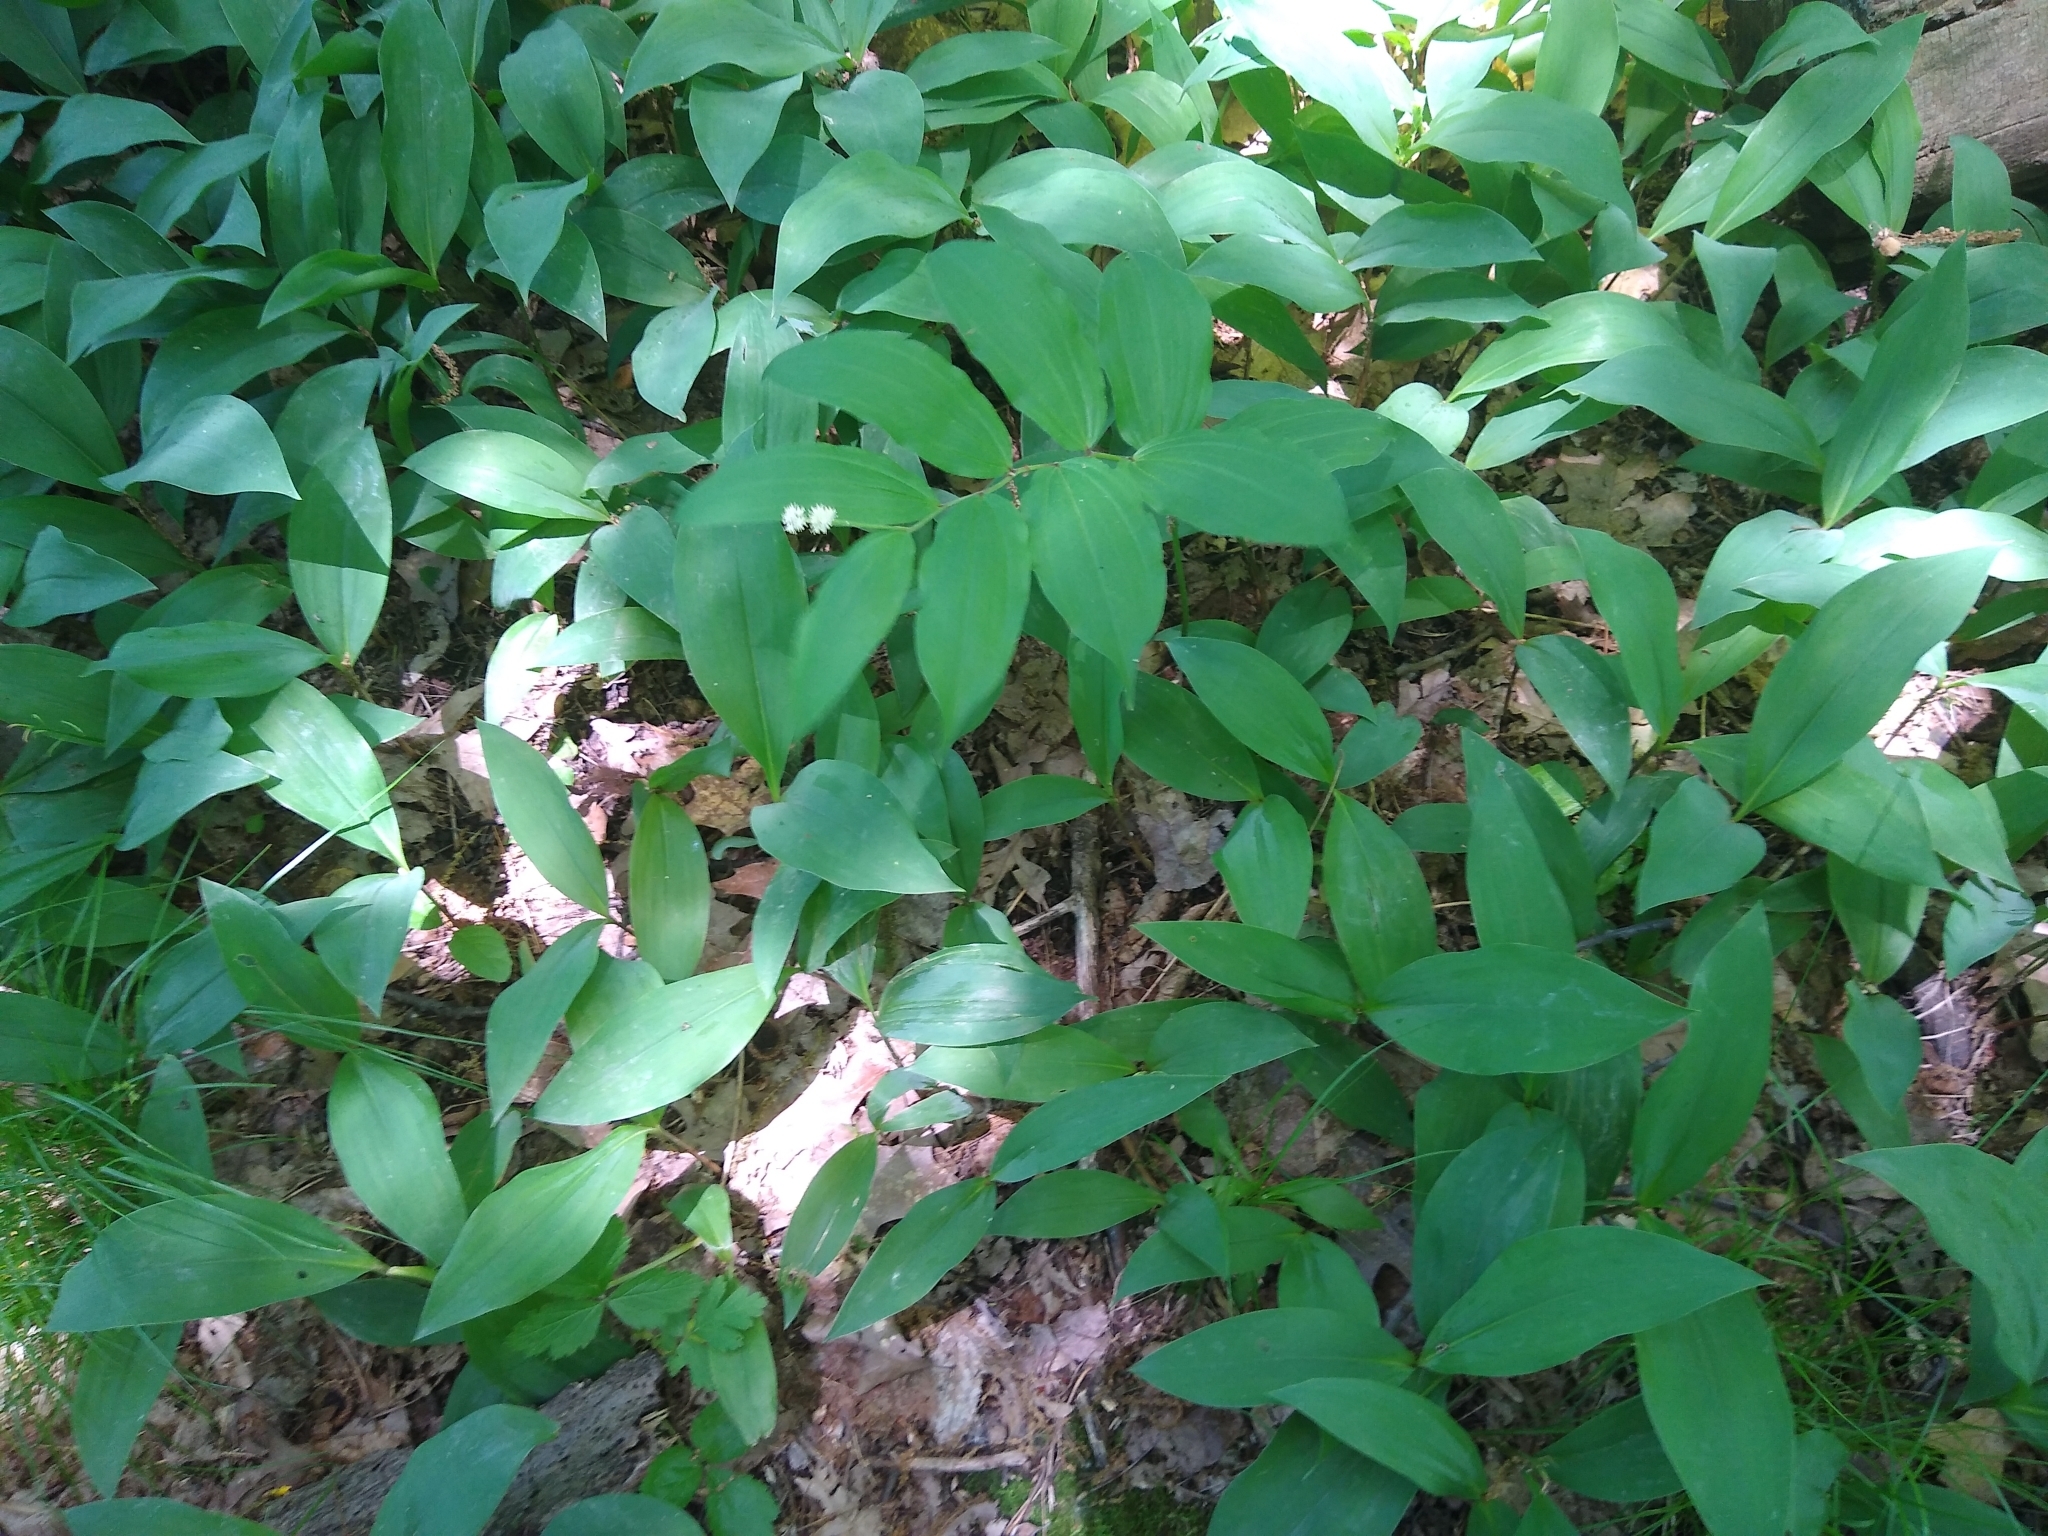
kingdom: Plantae
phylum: Tracheophyta
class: Liliopsida
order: Asparagales
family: Asparagaceae
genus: Maianthemum
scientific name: Maianthemum racemosum
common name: False spikenard
